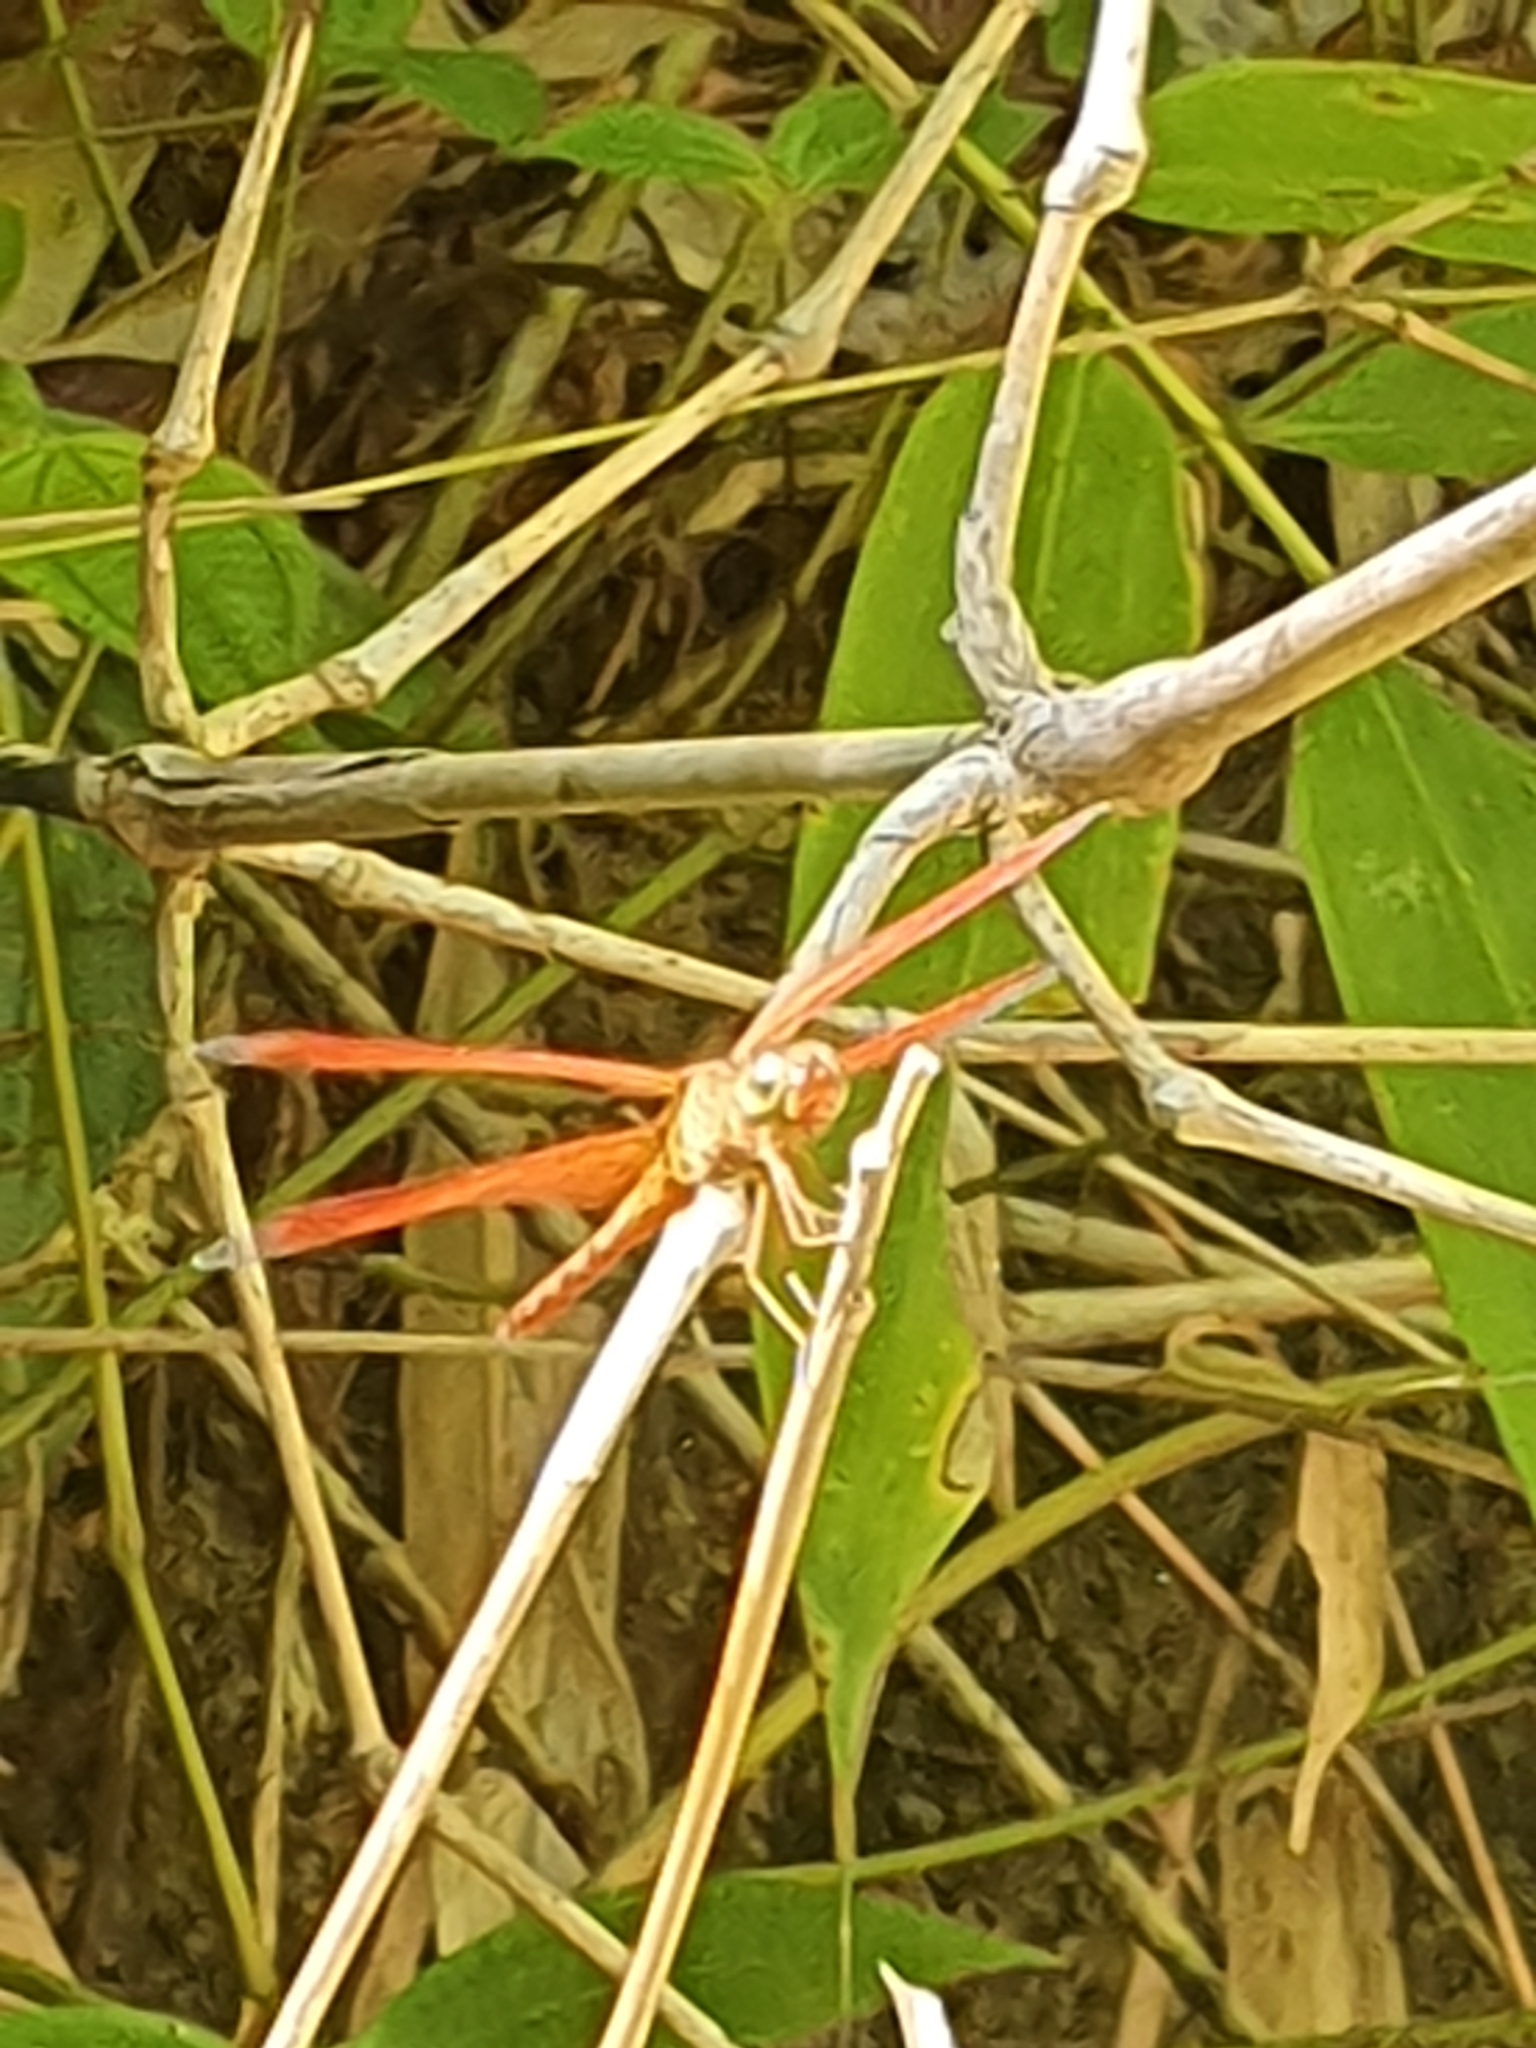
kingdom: Animalia
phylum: Arthropoda
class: Insecta
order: Odonata
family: Libellulidae
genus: Neurothemis
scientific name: Neurothemis fluctuans
